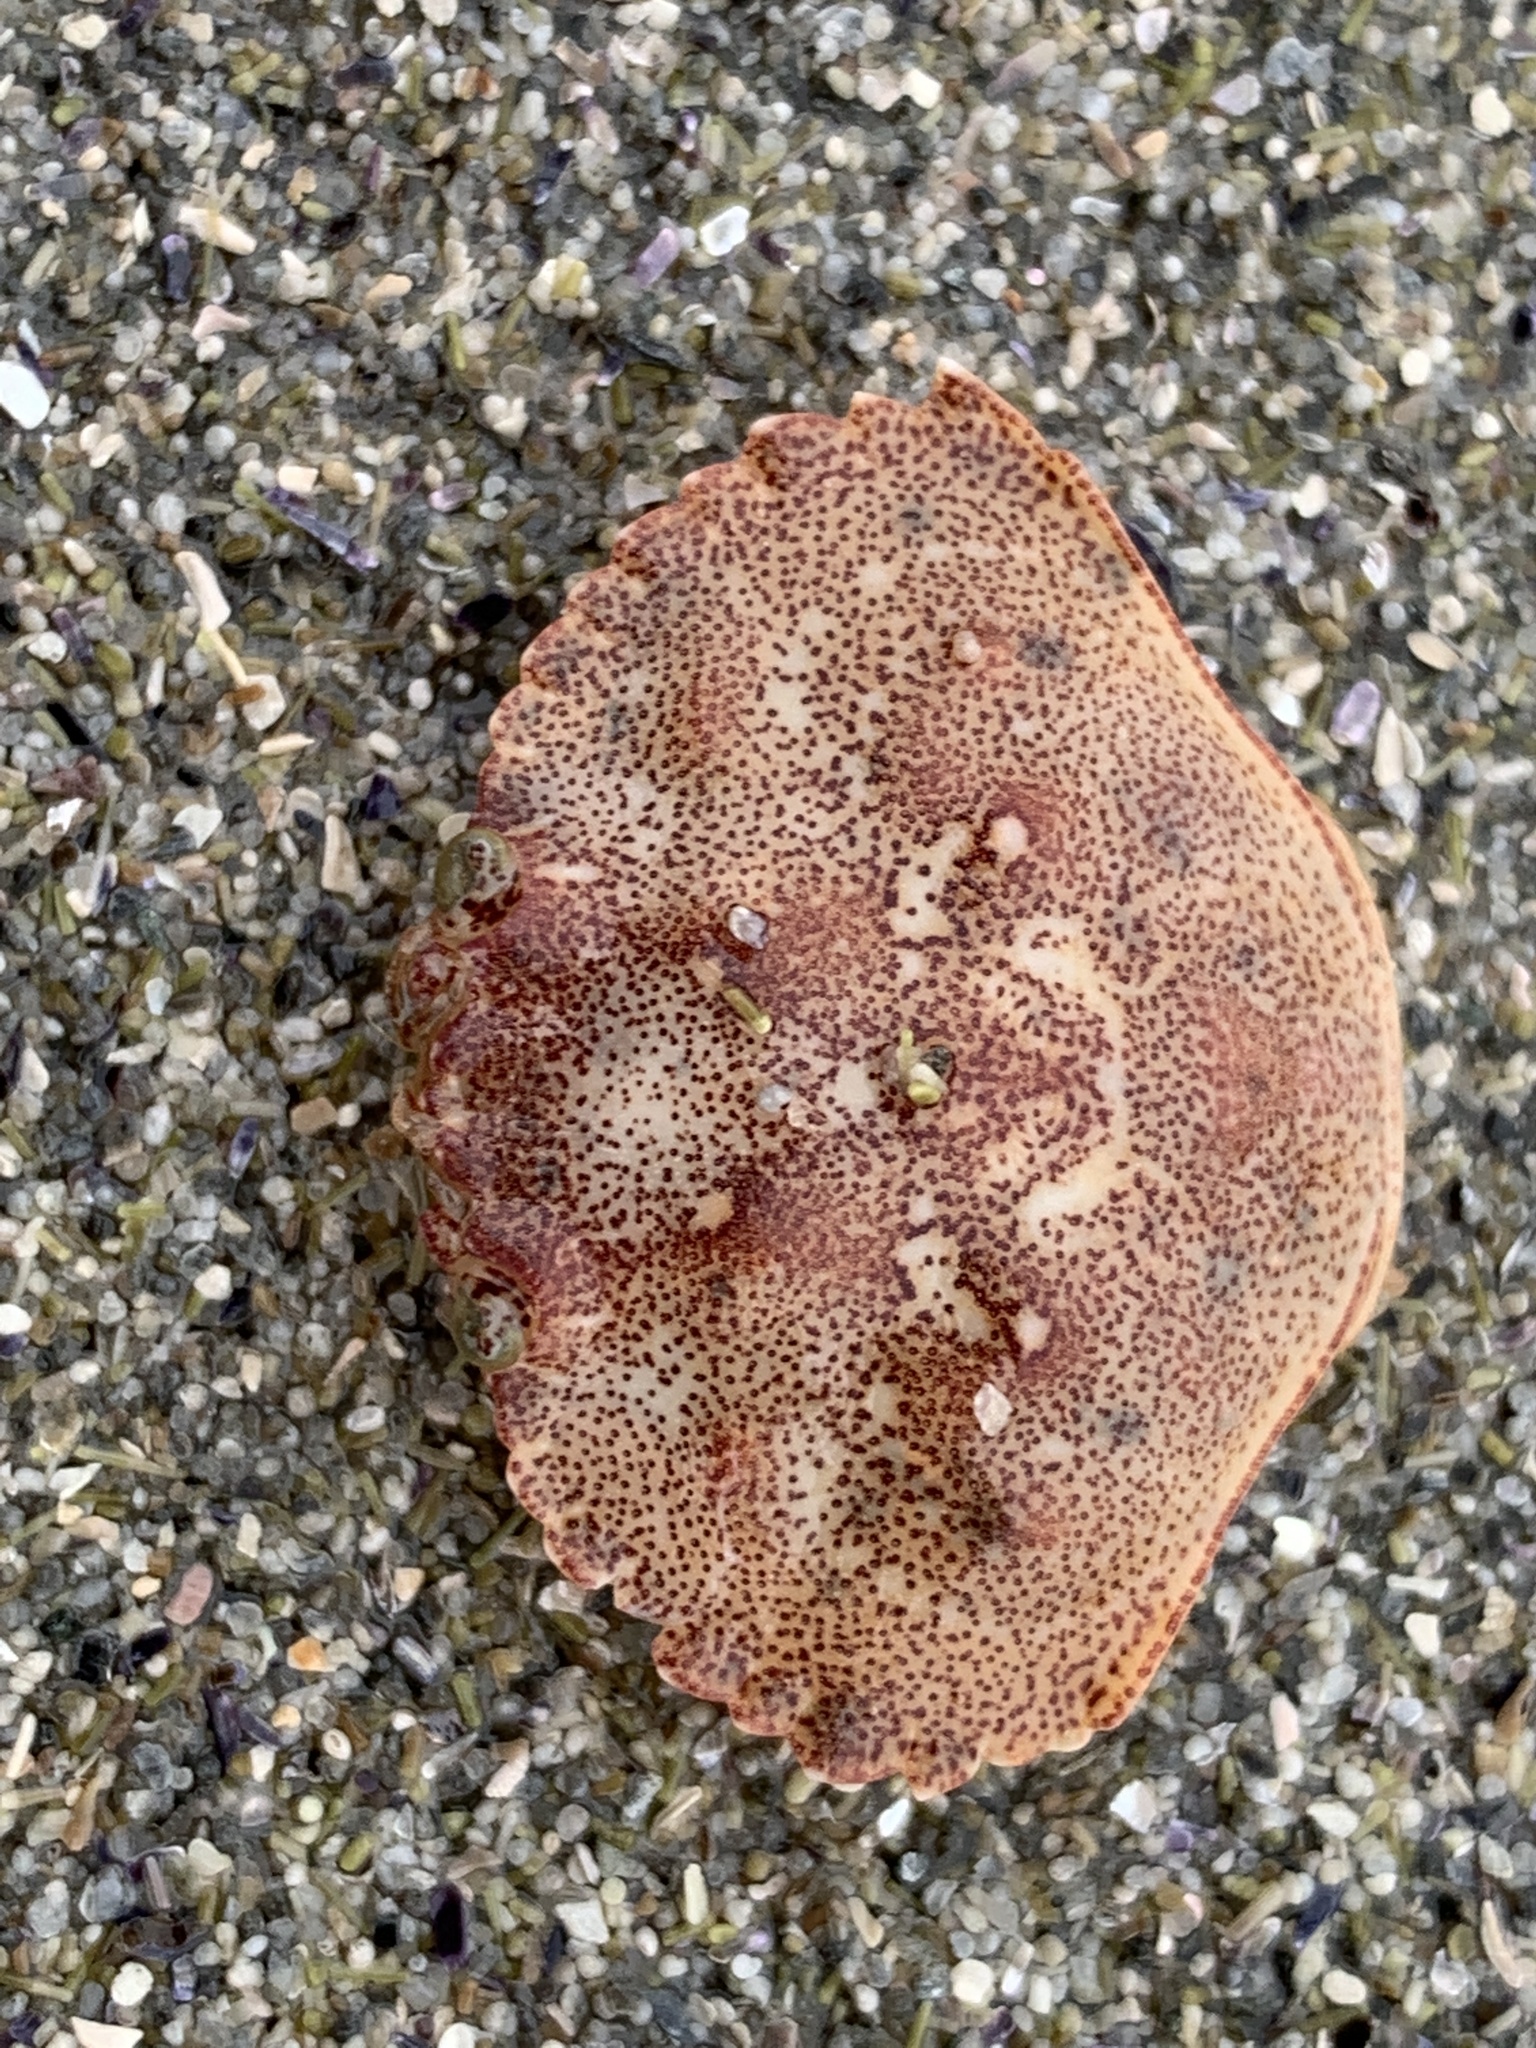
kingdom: Animalia
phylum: Arthropoda
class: Malacostraca
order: Decapoda
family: Cancridae
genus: Cancer
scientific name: Cancer irroratus
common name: Atlantic rock crab
